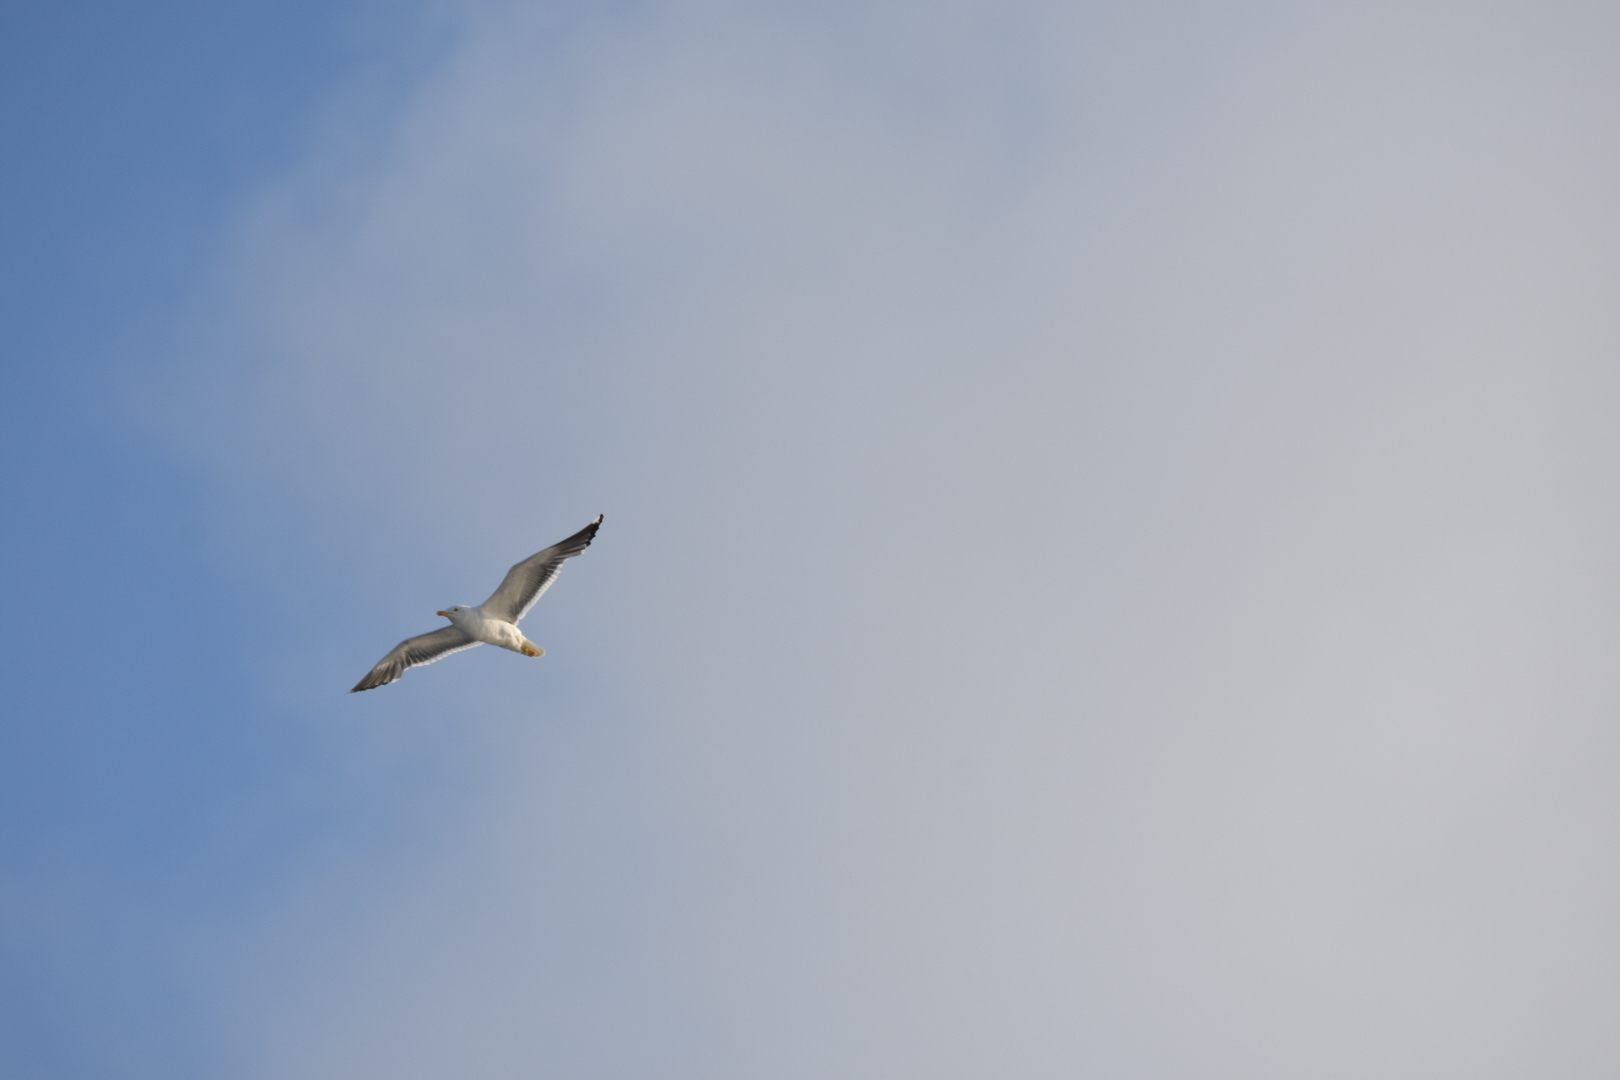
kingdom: Animalia
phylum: Chordata
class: Aves
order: Charadriiformes
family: Laridae
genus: Larus
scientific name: Larus fuscus
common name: Lesser black-backed gull
